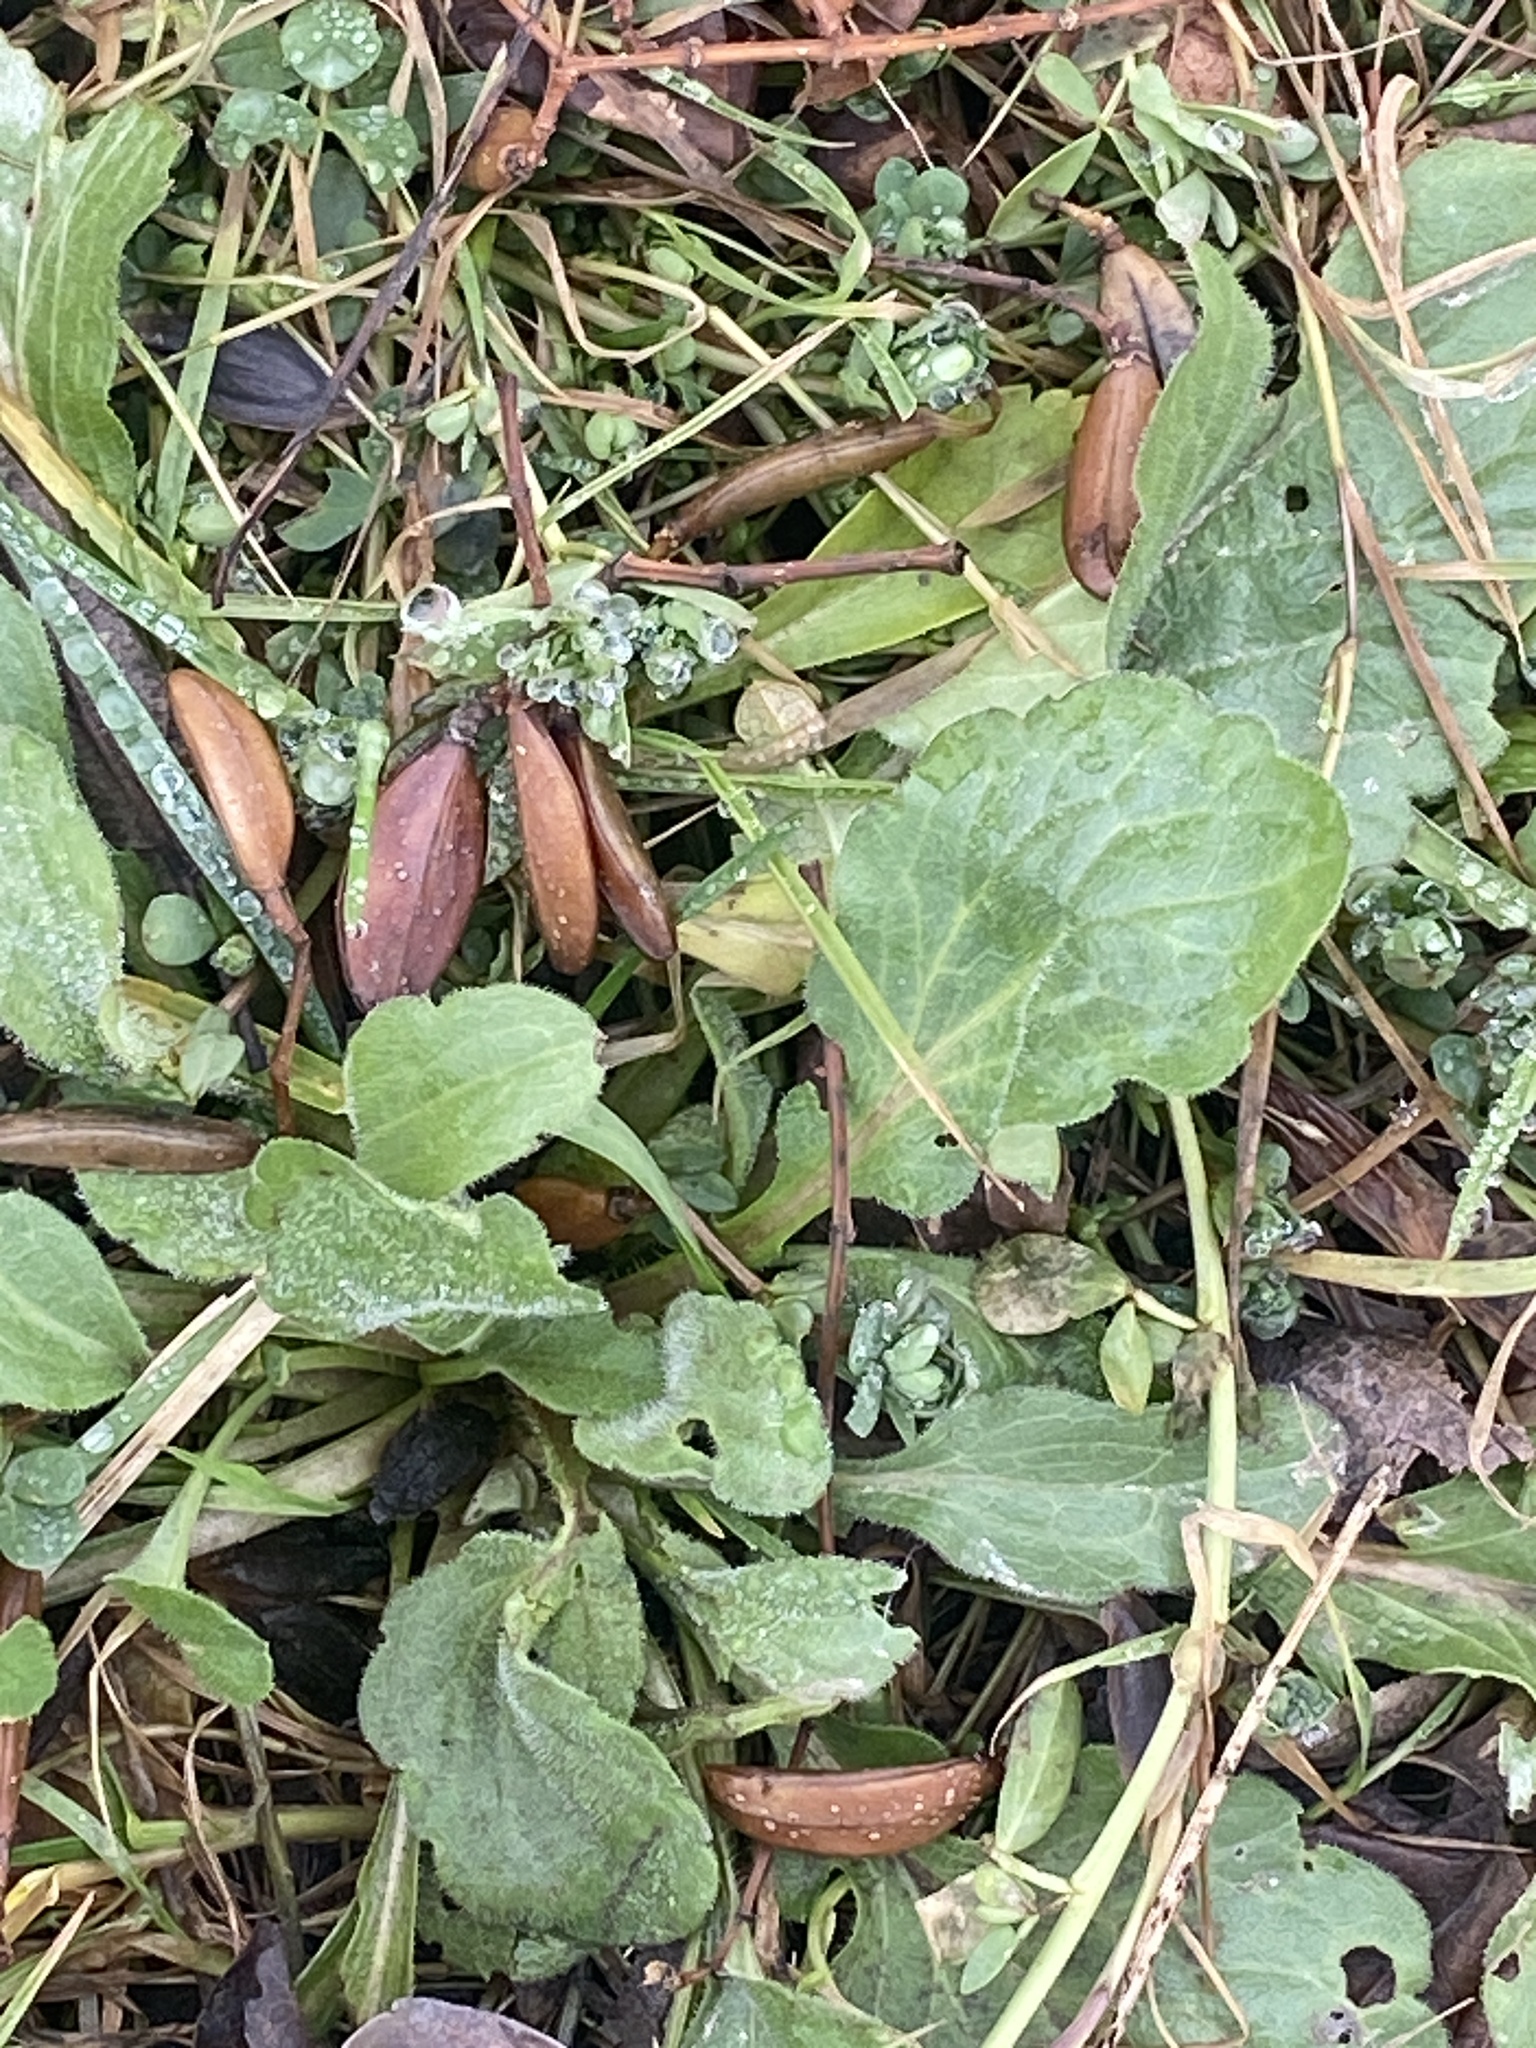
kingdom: Plantae
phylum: Tracheophyta
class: Magnoliopsida
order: Asterales
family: Asteraceae
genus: Erigeron
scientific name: Erigeron annuus
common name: Tall fleabane
